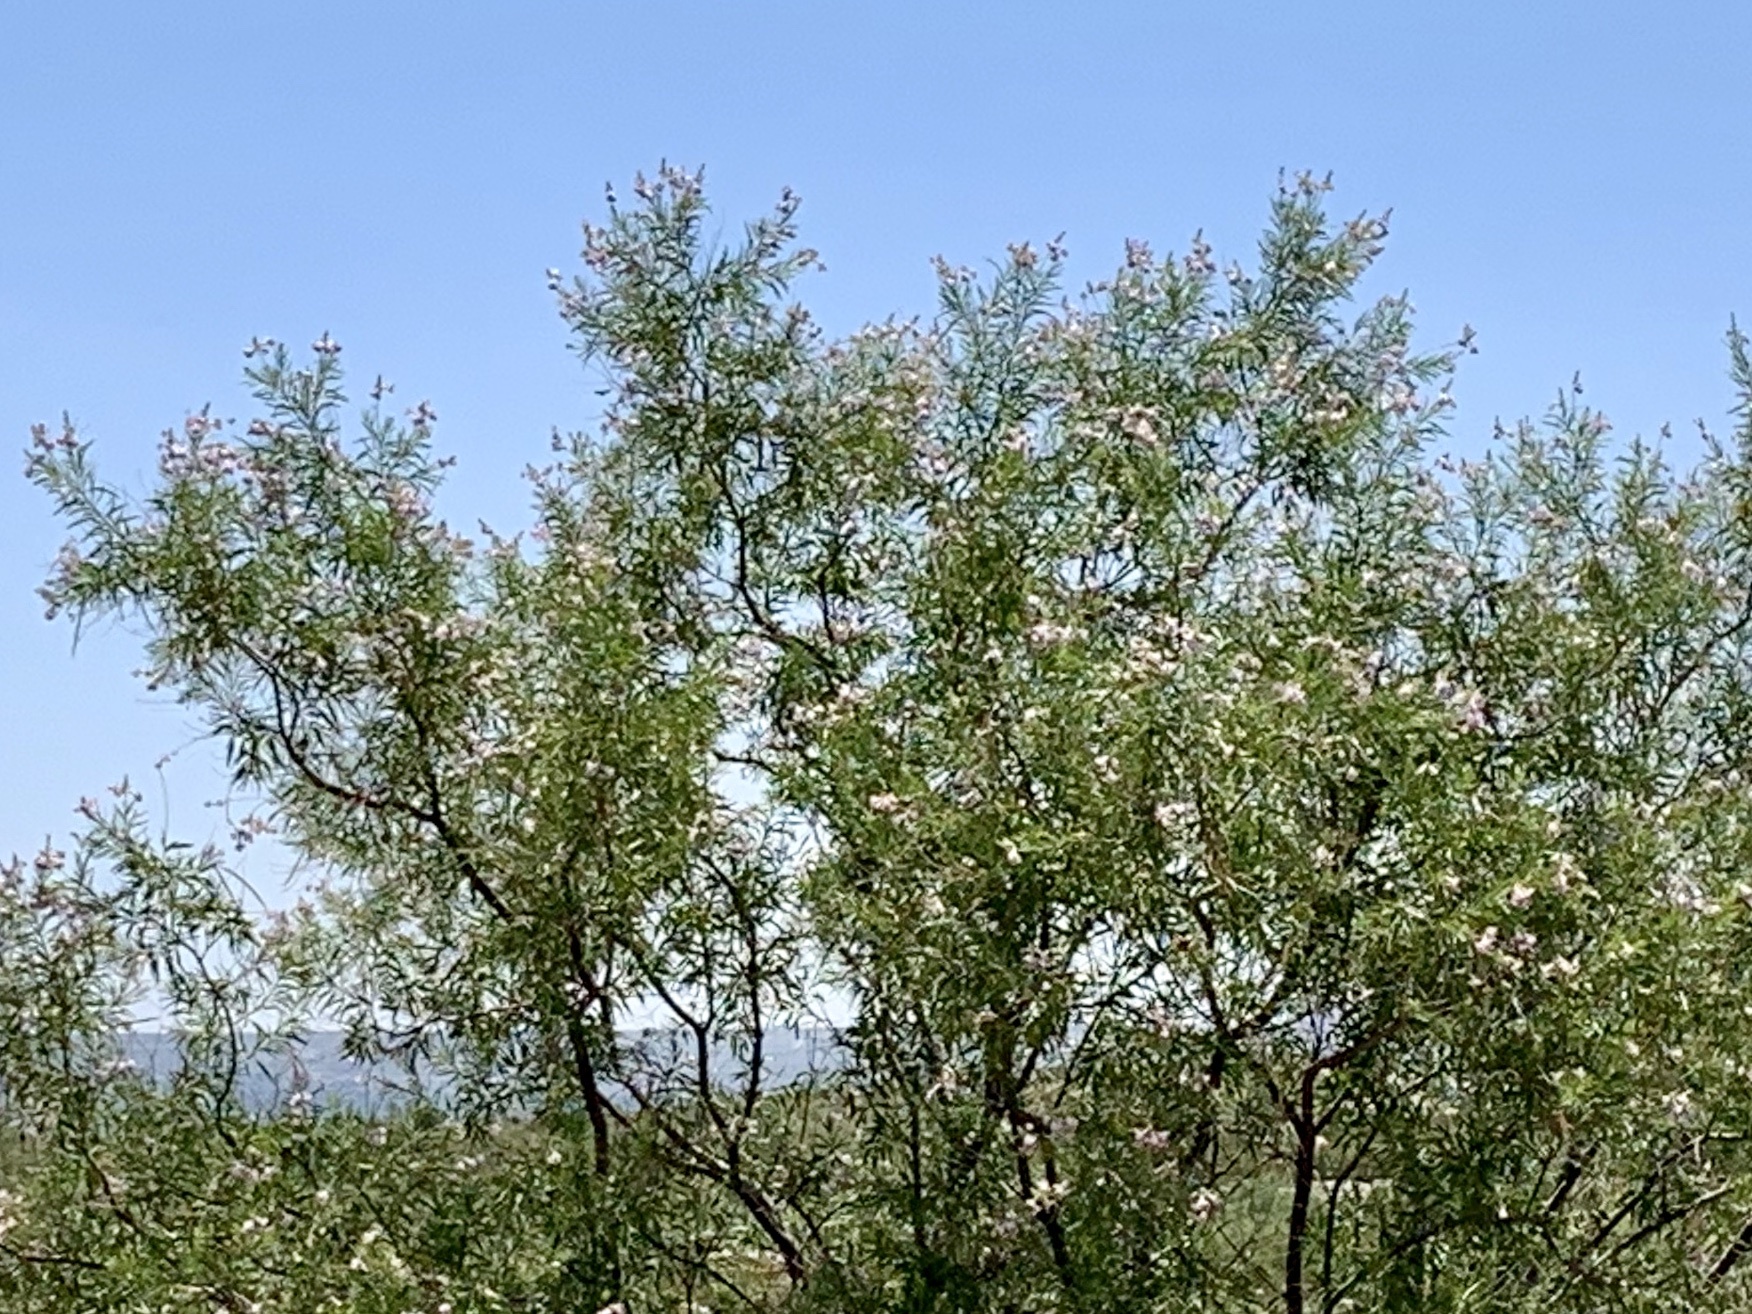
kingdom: Plantae
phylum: Tracheophyta
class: Magnoliopsida
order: Lamiales
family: Bignoniaceae
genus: Chilopsis
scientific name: Chilopsis linearis
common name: Desert-willow
